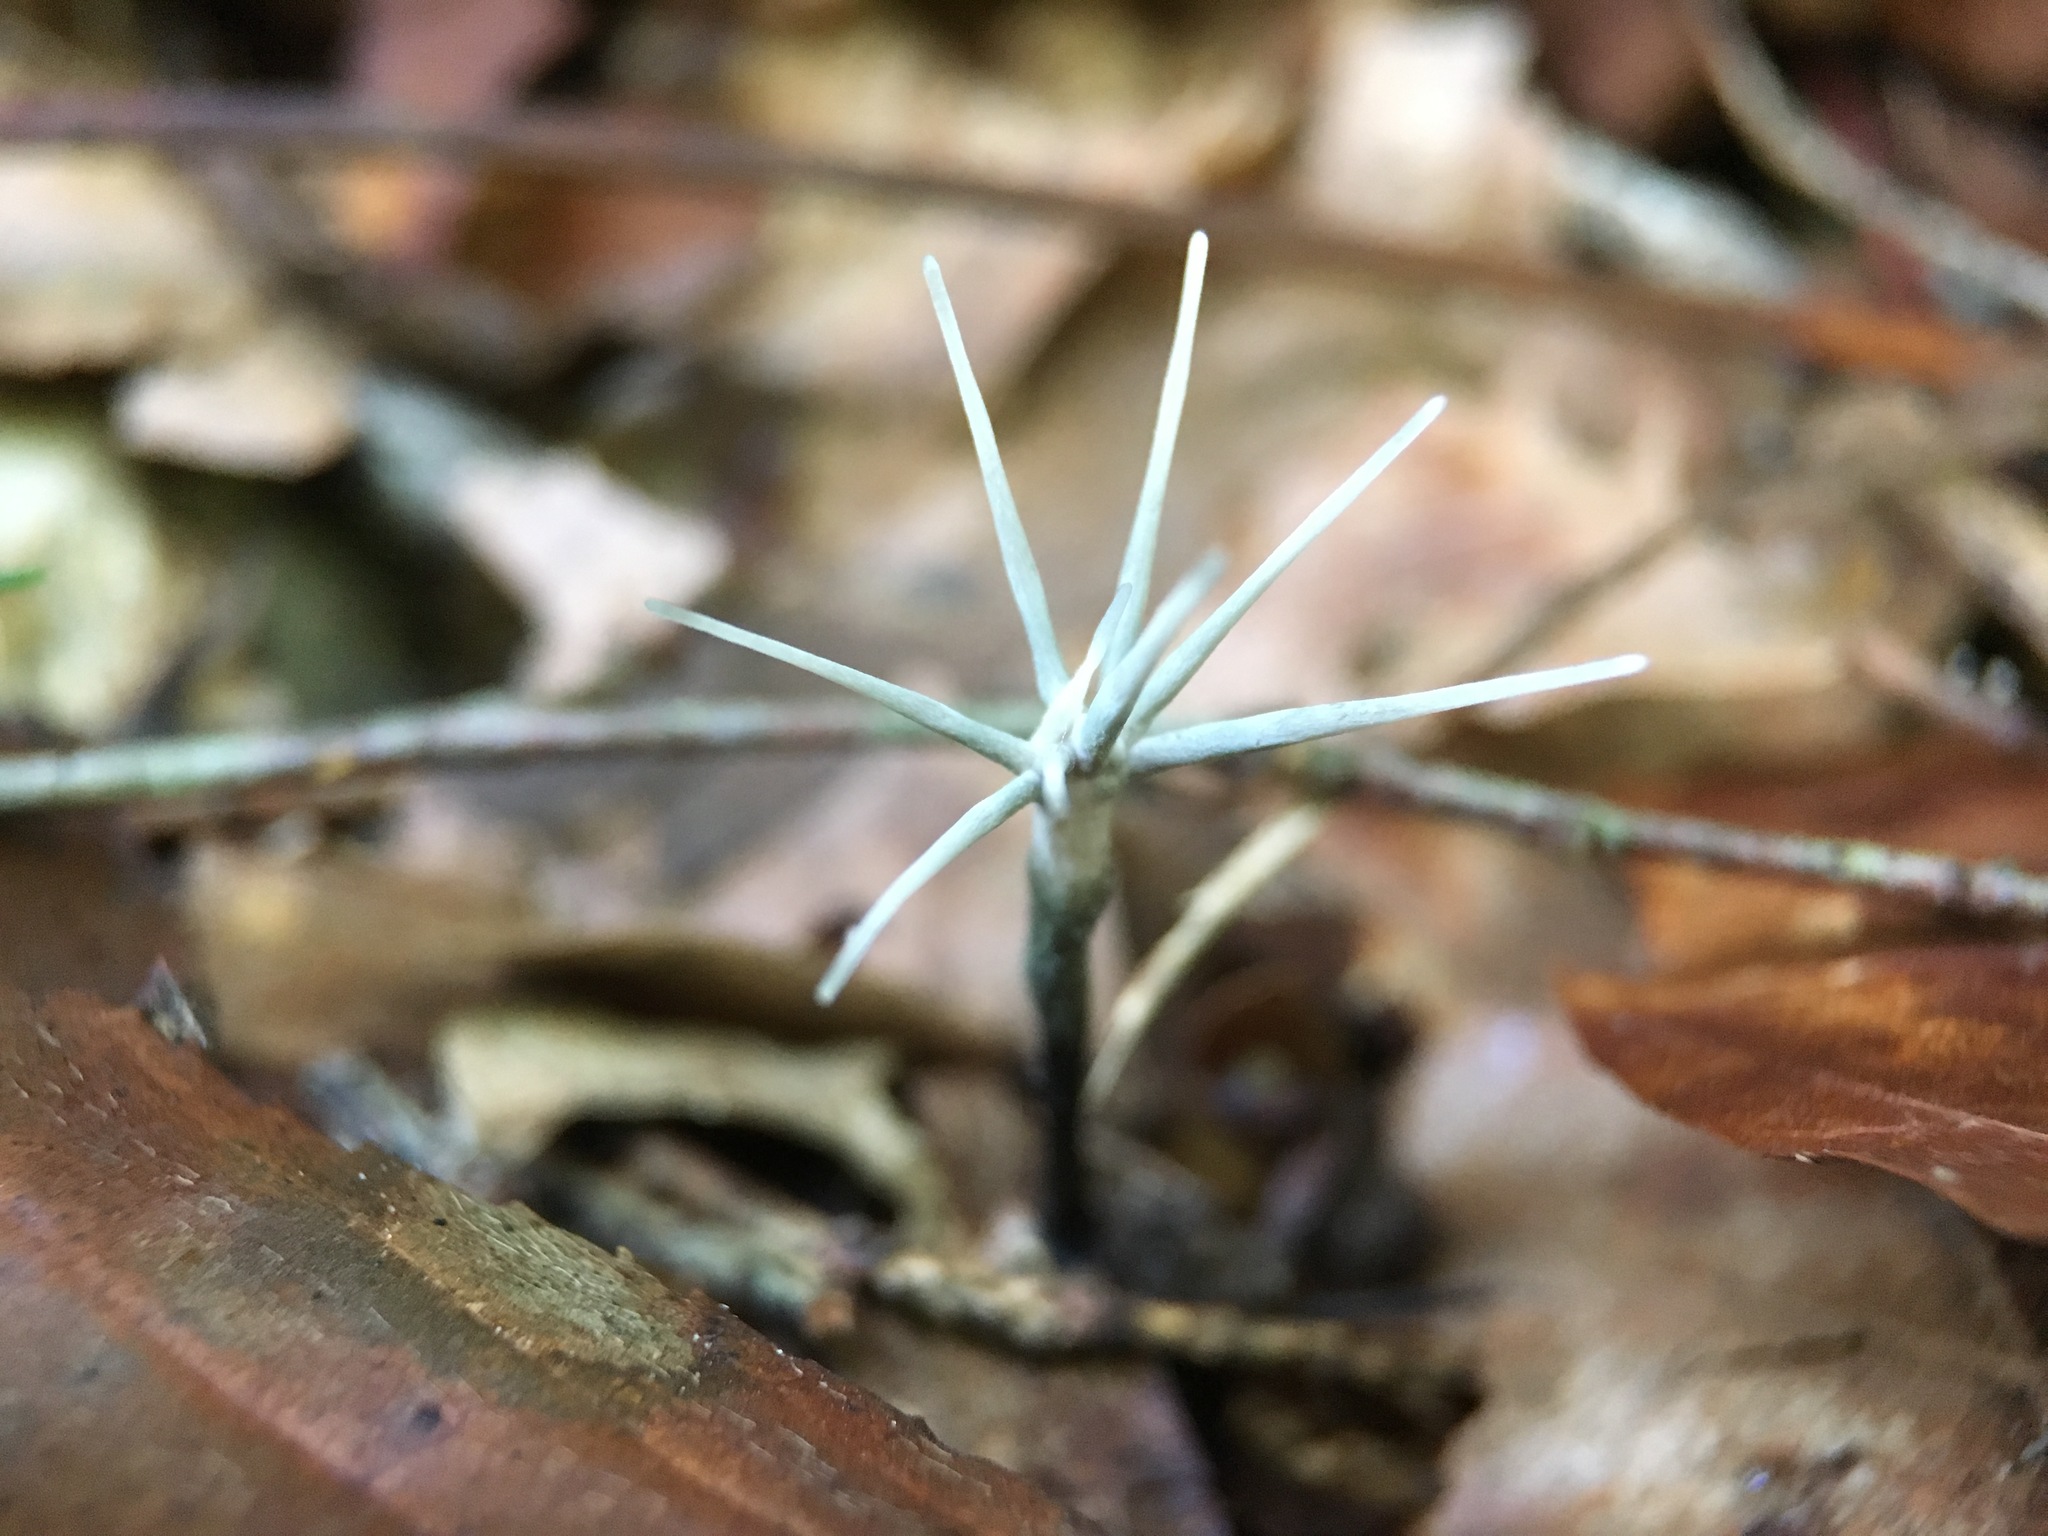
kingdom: Fungi
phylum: Ascomycota
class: Sordariomycetes
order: Xylariales
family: Xylariaceae
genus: Xylaria
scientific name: Xylaria tentaculata
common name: Fairy sparklers
